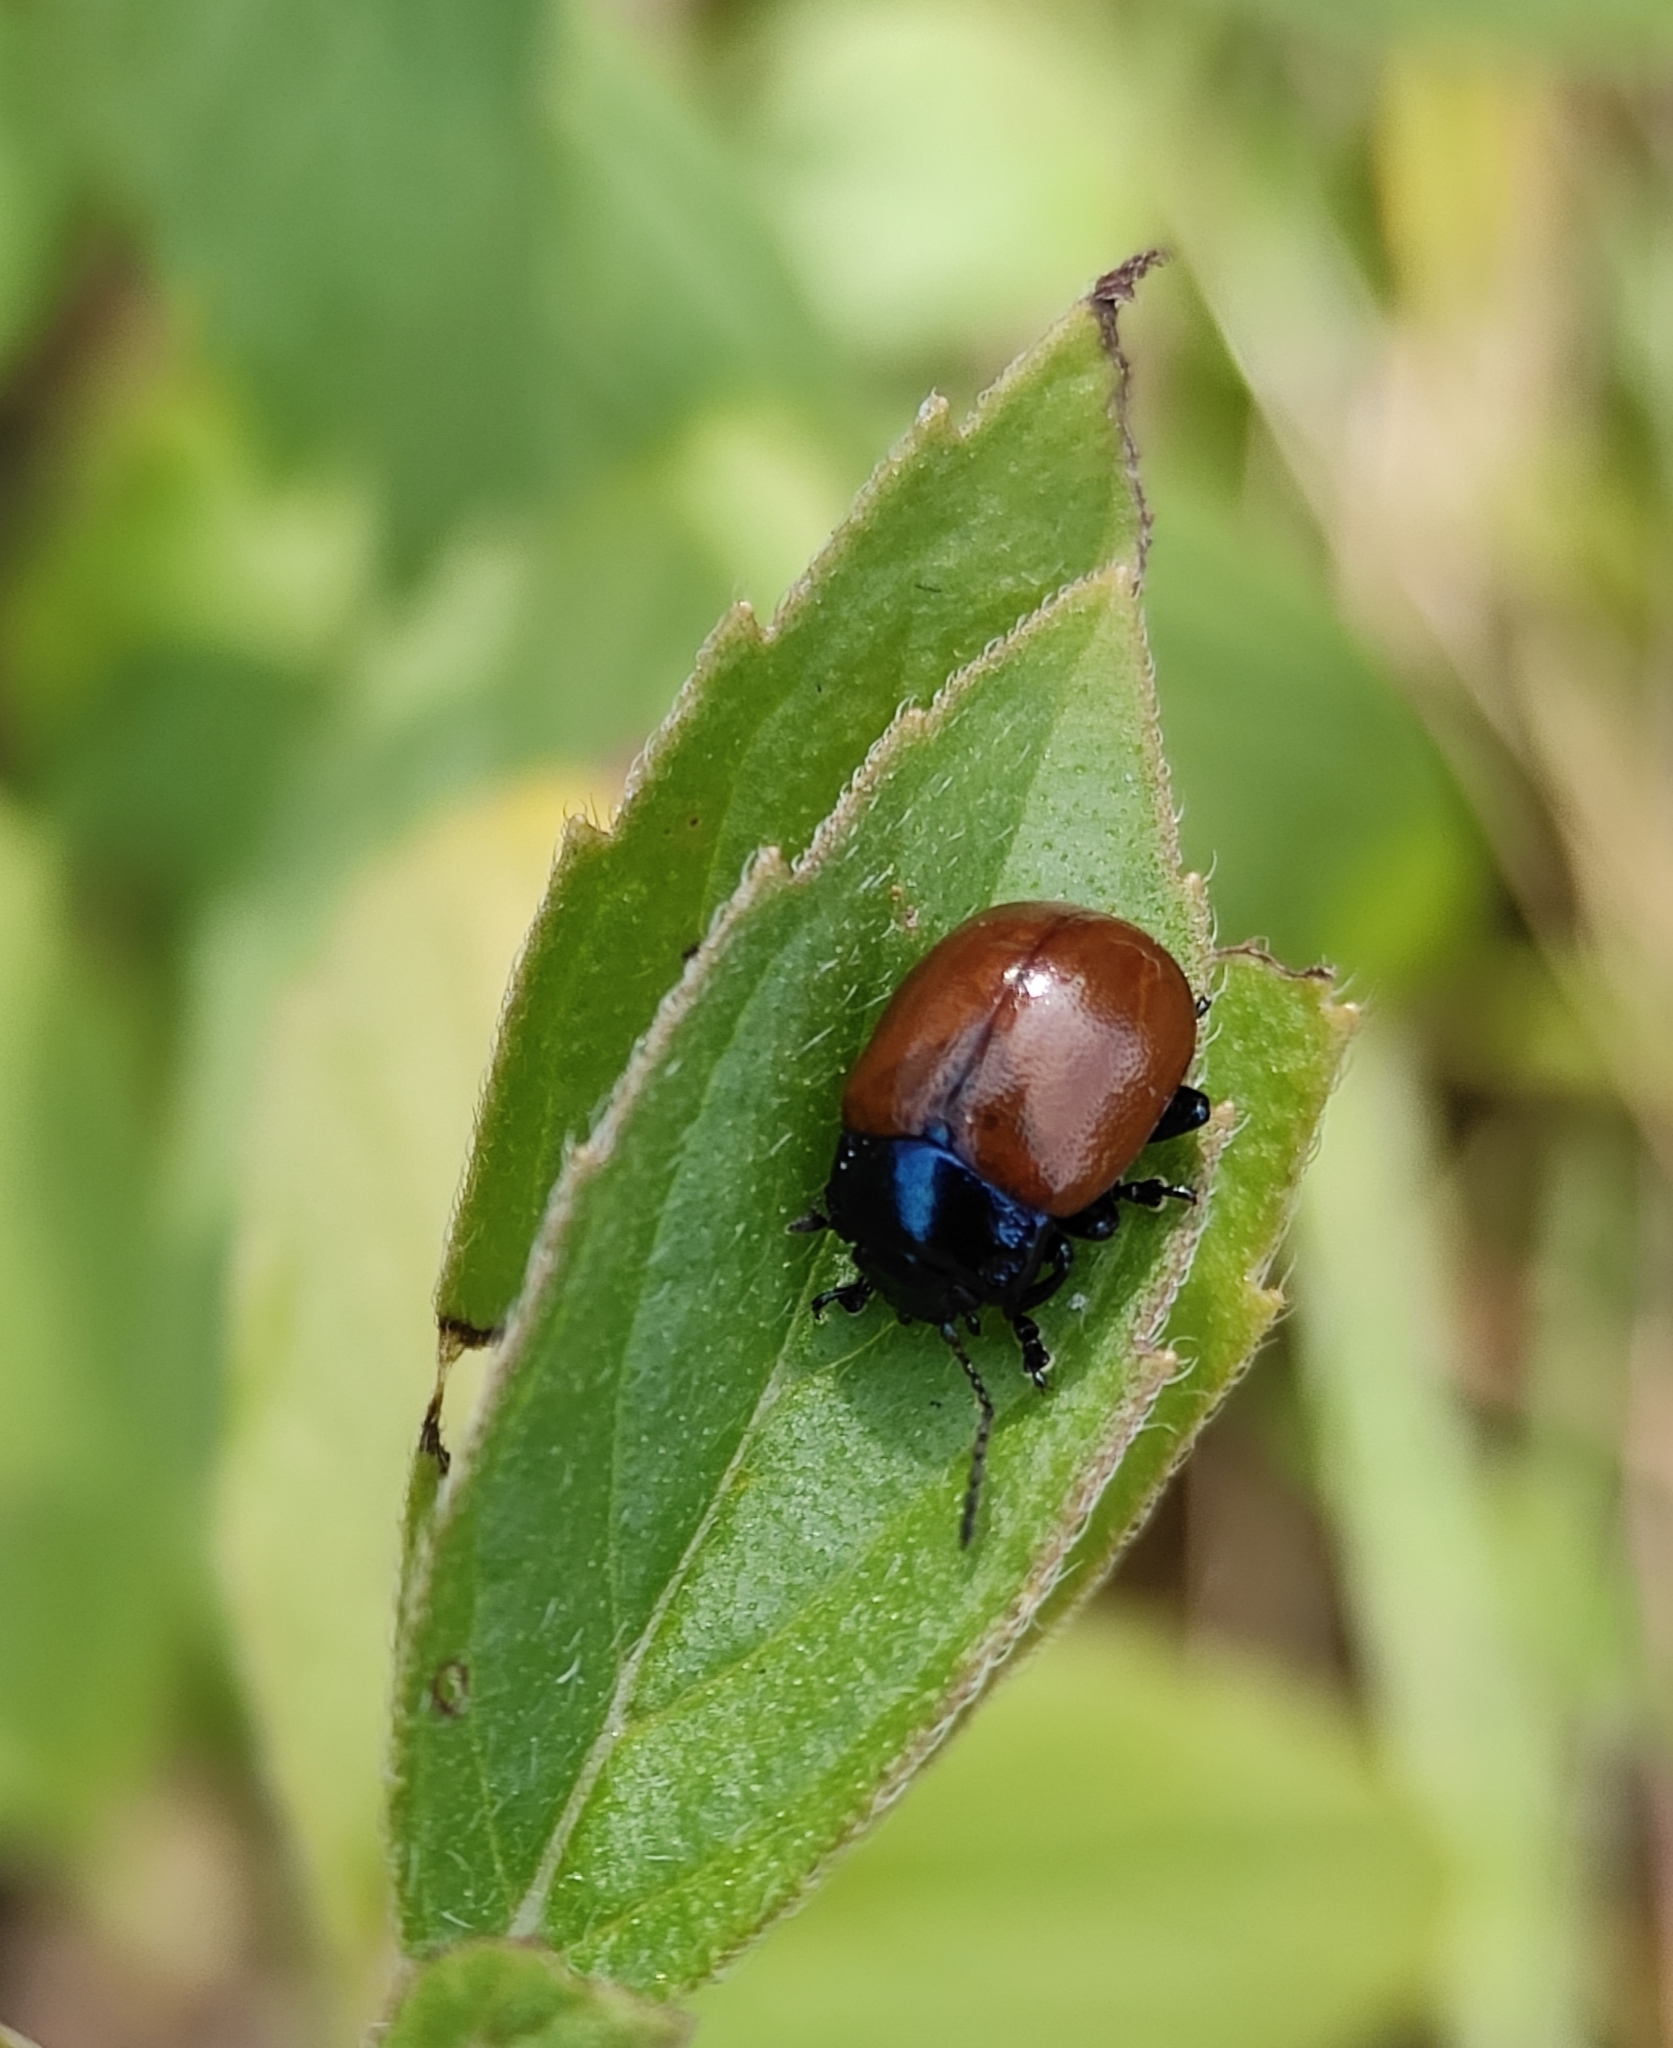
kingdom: Animalia
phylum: Arthropoda
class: Insecta
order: Coleoptera
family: Chrysomelidae
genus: Chrysomela
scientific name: Chrysomela polita
